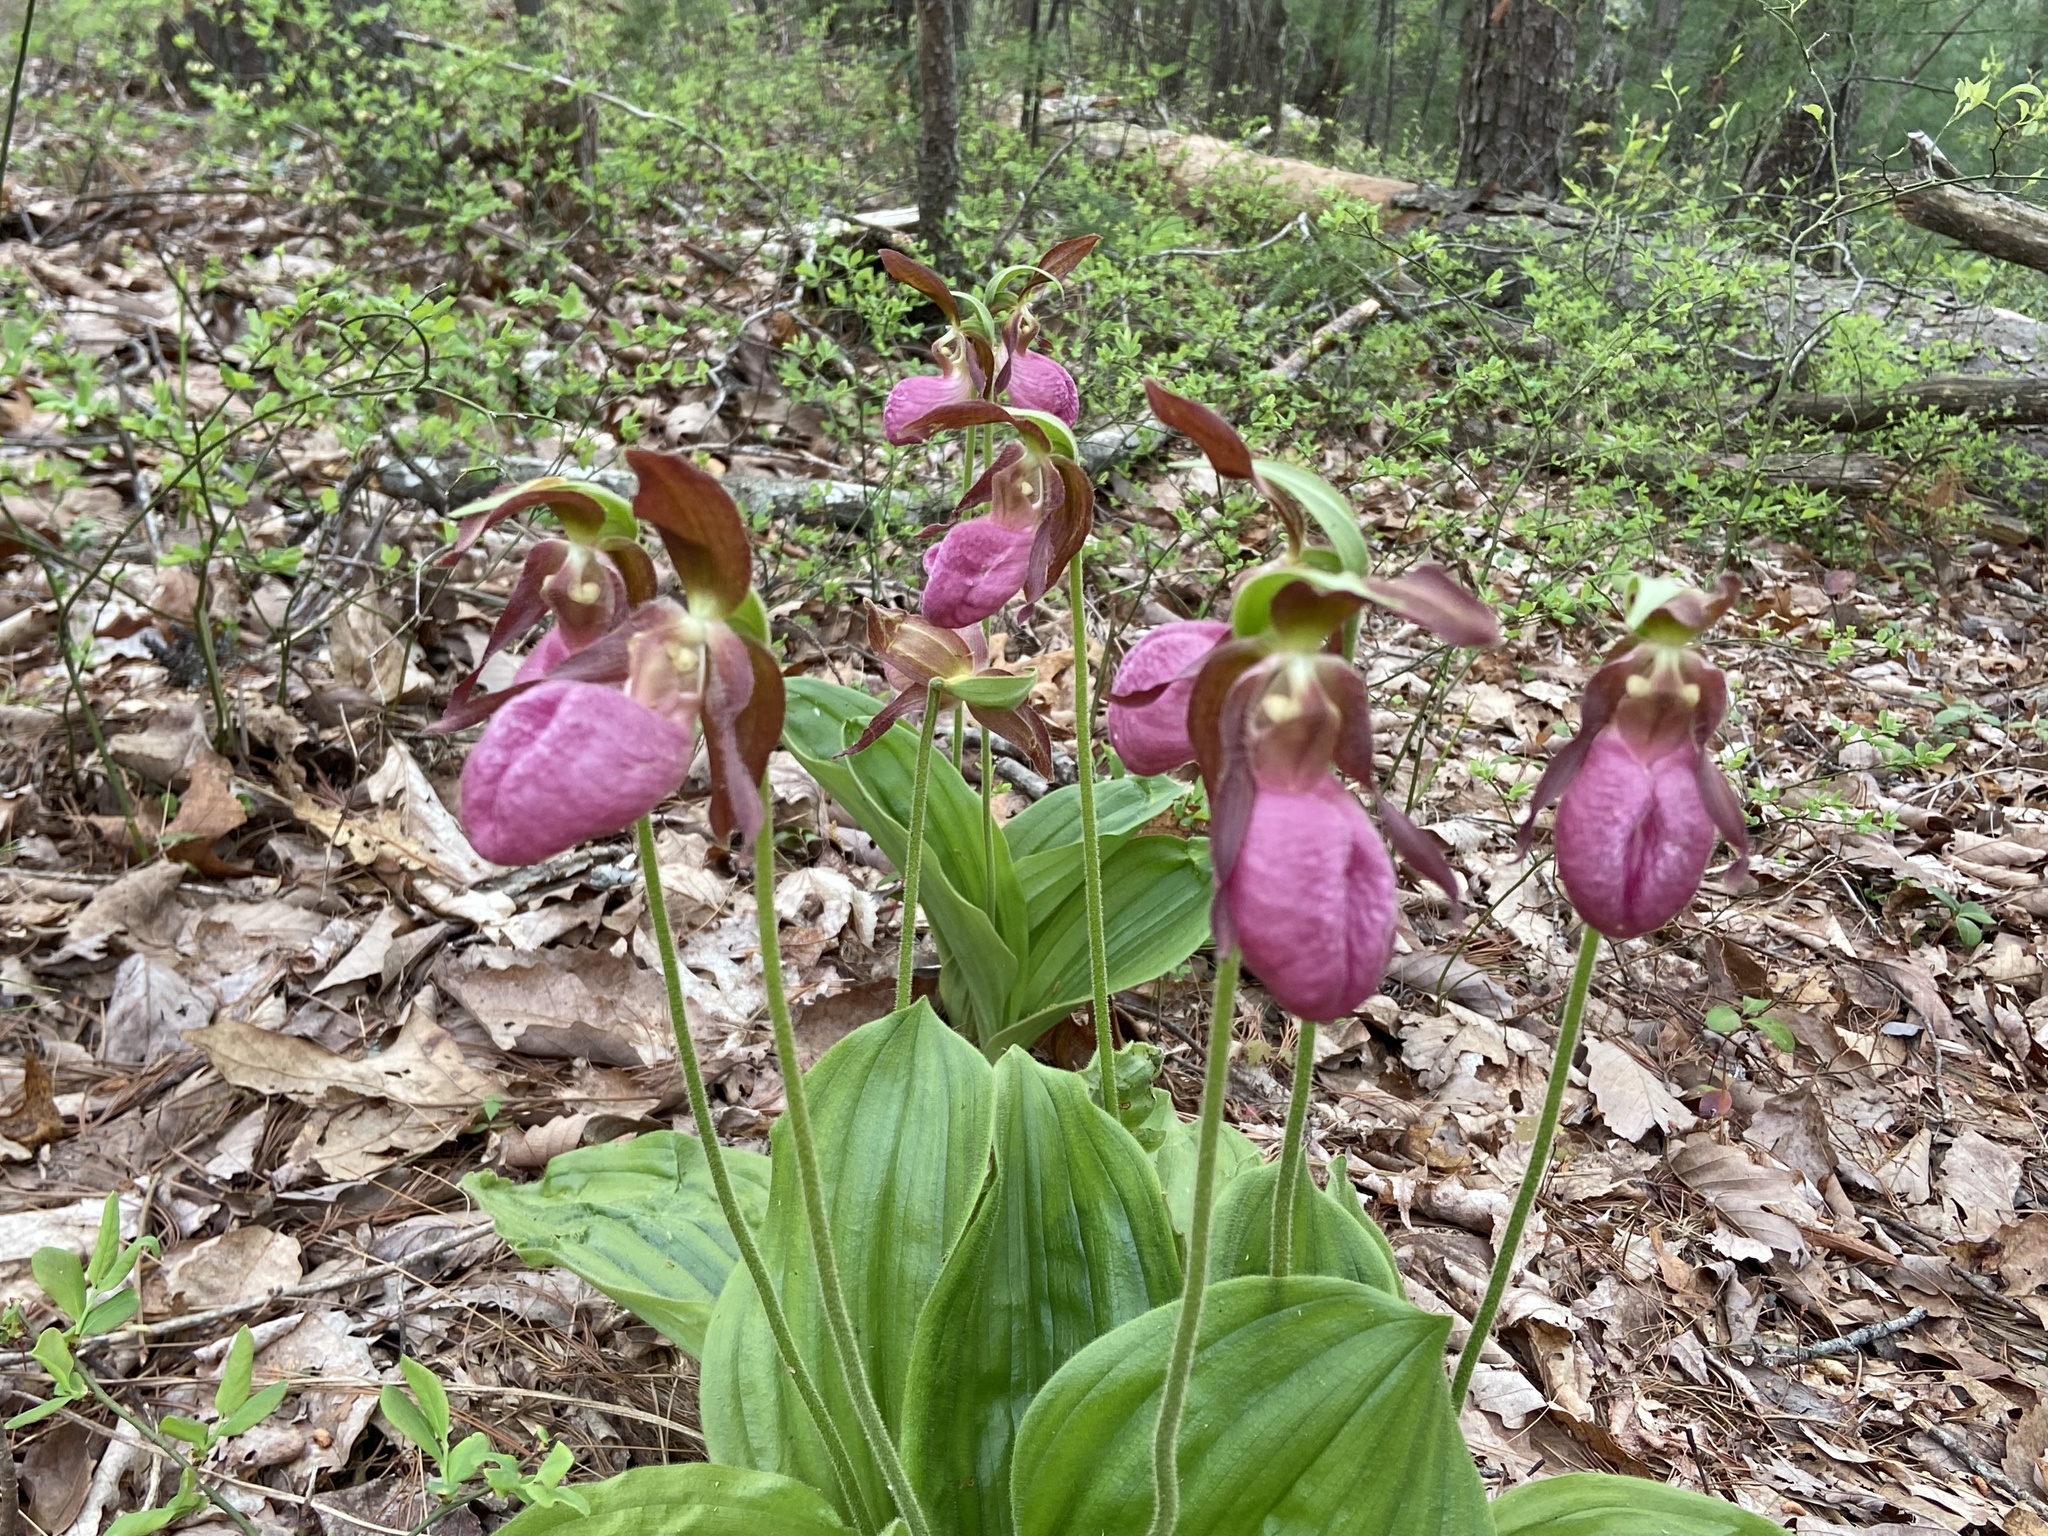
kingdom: Plantae
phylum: Tracheophyta
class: Liliopsida
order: Asparagales
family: Orchidaceae
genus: Cypripedium
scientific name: Cypripedium acaule
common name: Pink lady's-slipper
